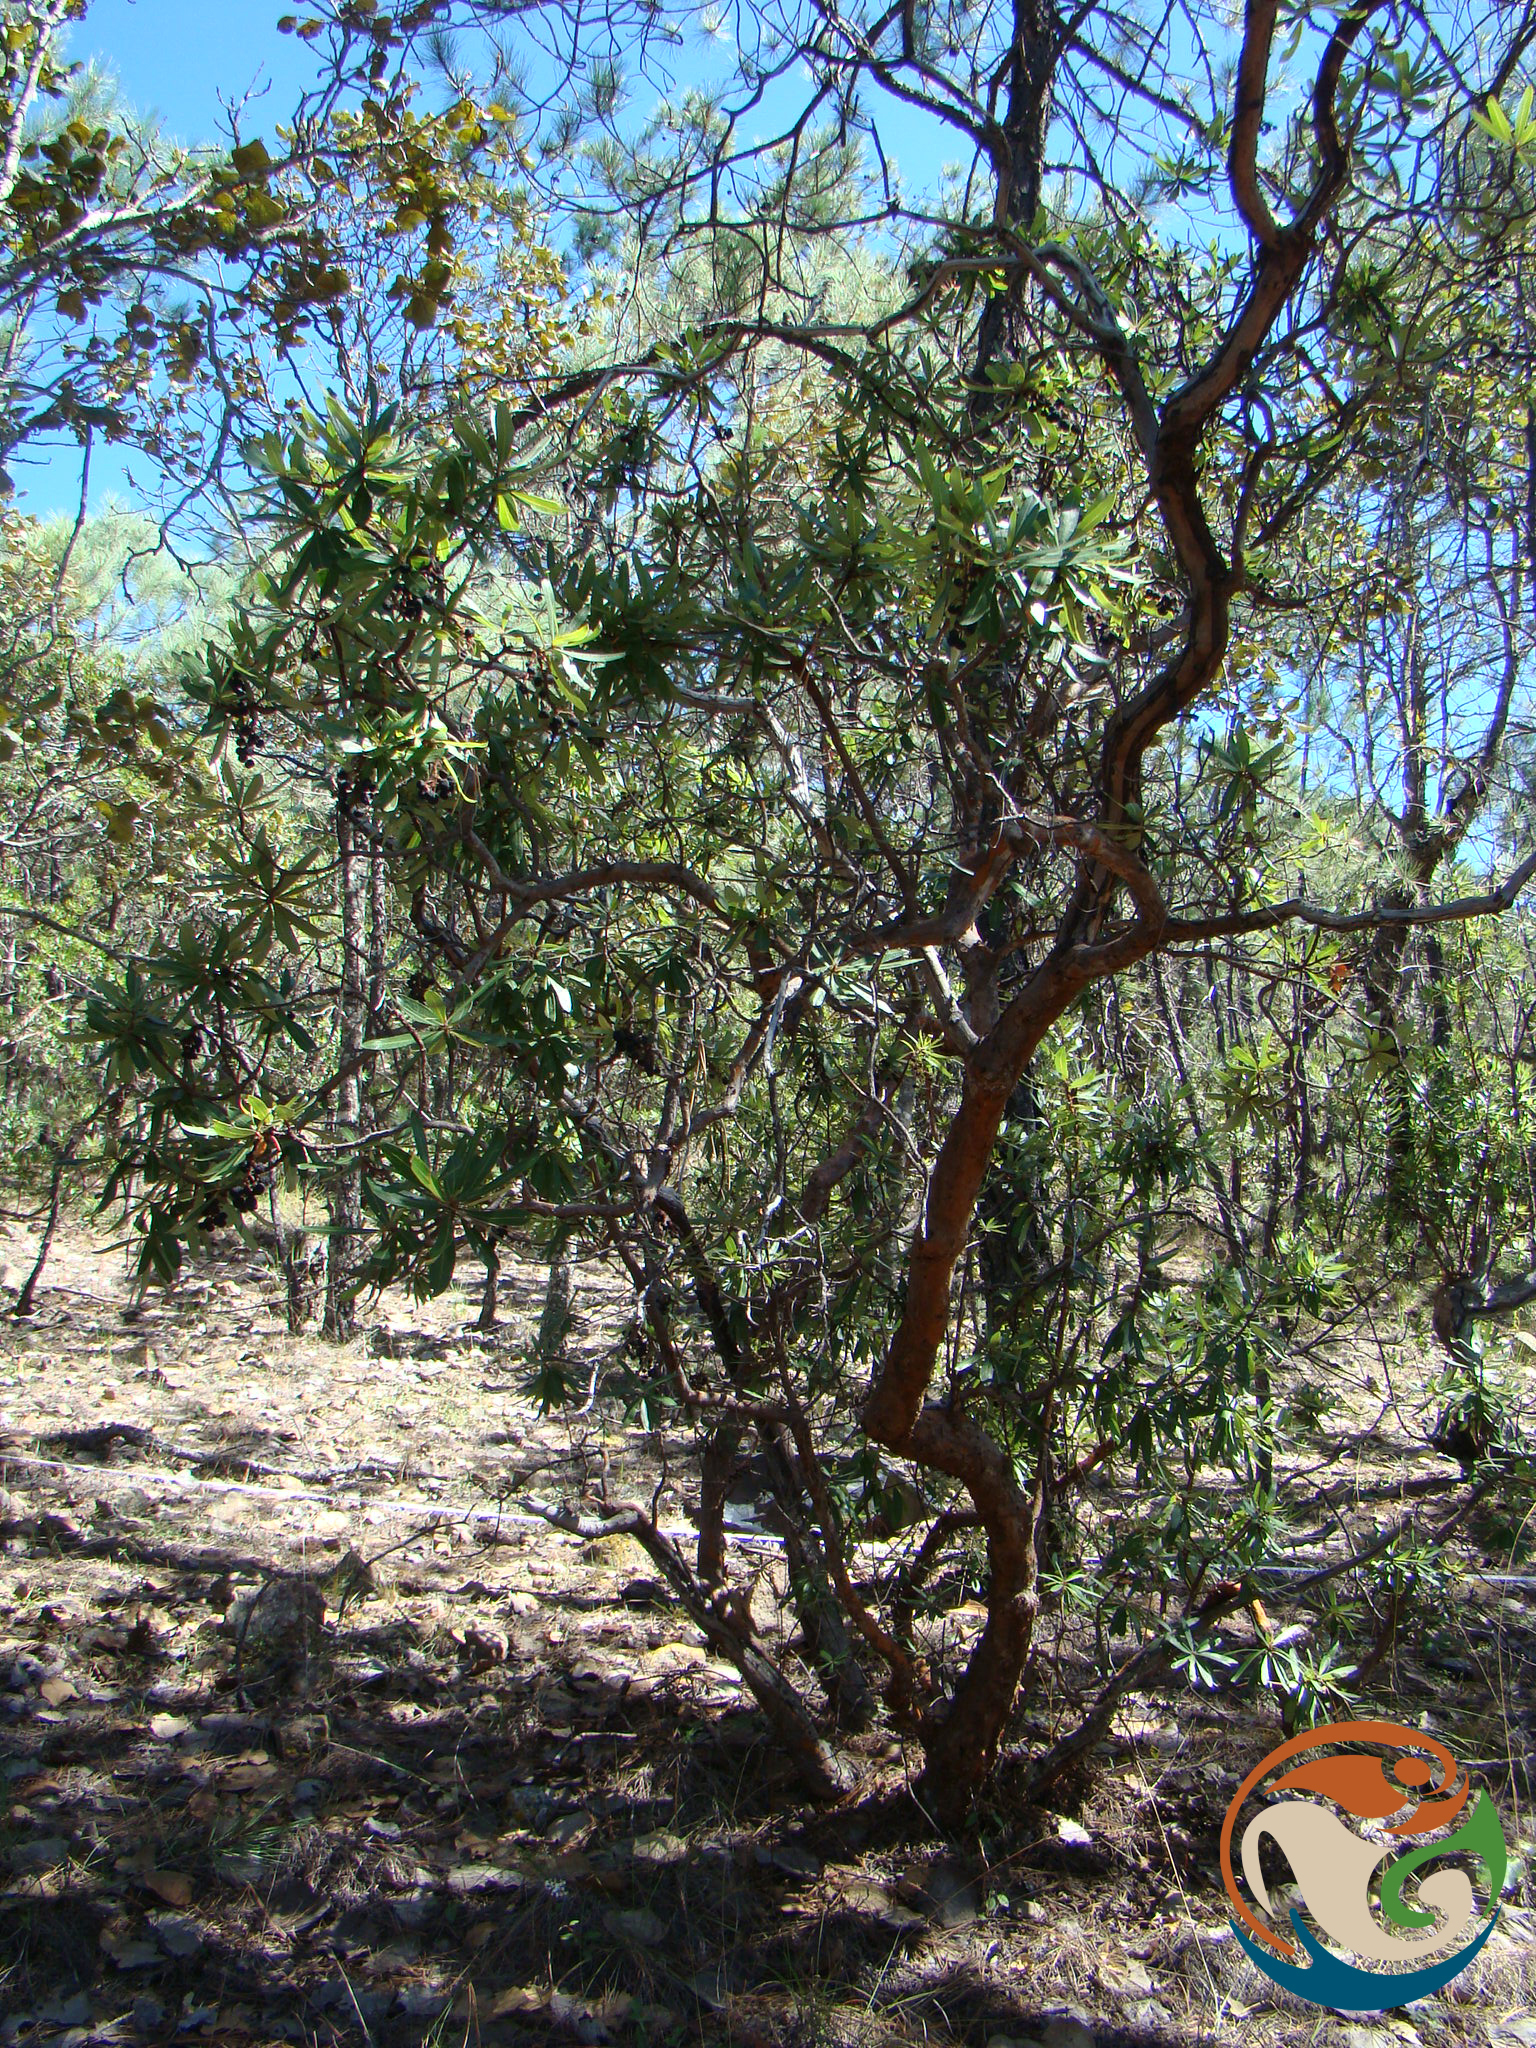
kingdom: Plantae
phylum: Tracheophyta
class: Magnoliopsida
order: Ericales
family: Ericaceae
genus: Comarostaphylis
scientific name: Comarostaphylis polifolia
